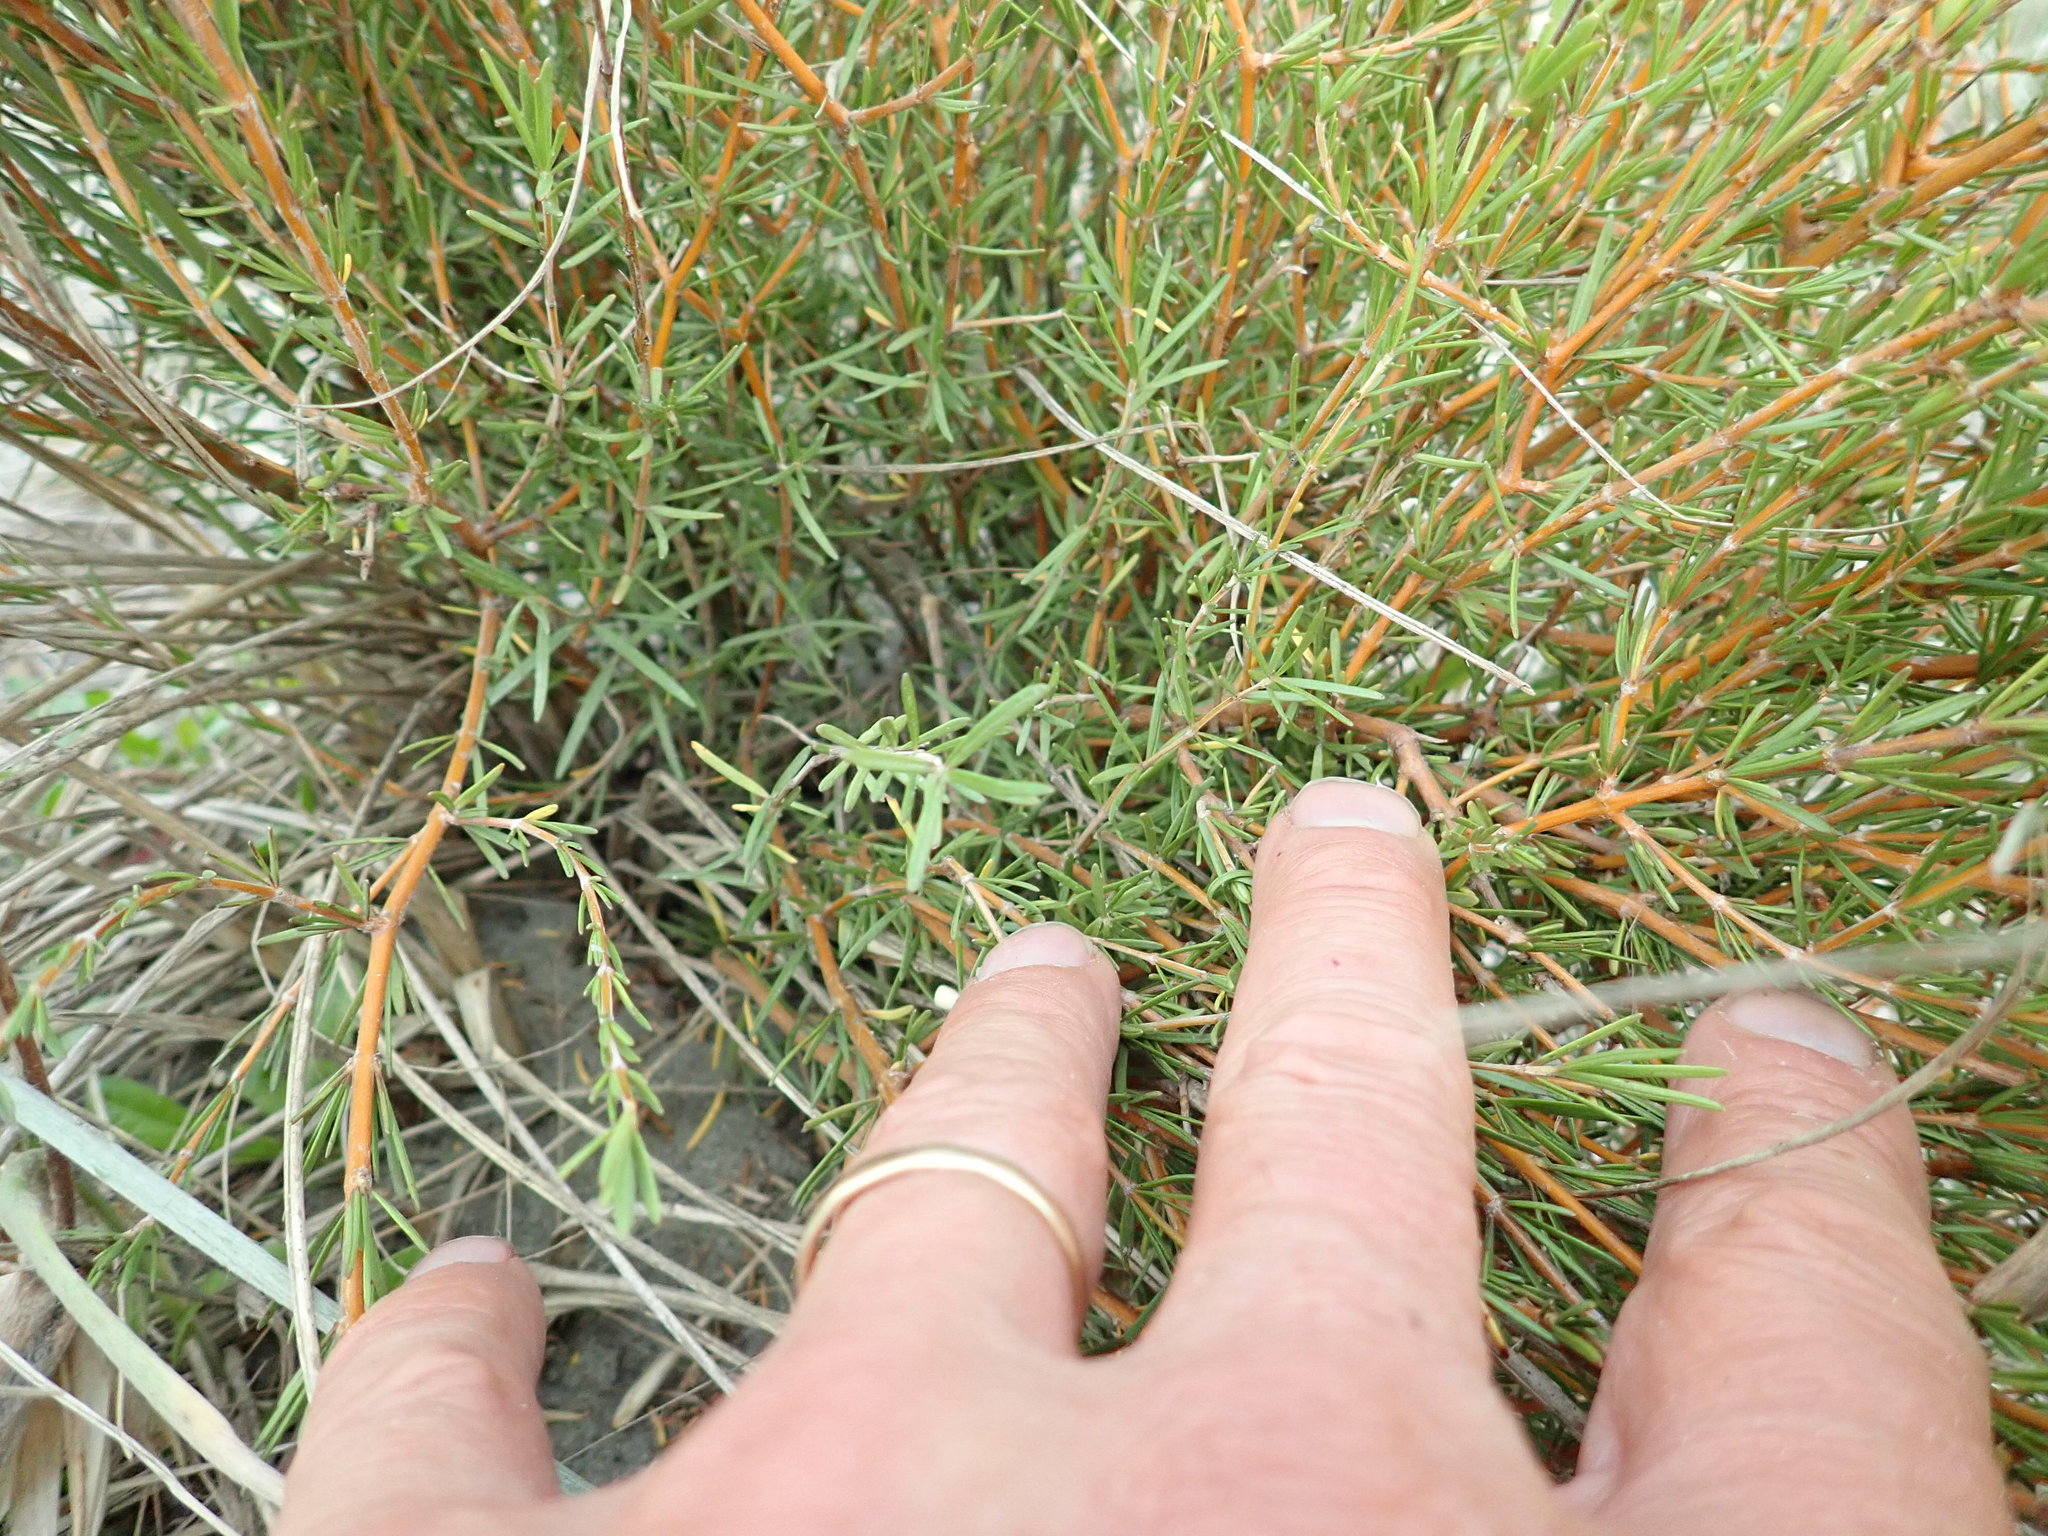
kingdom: Plantae
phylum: Tracheophyta
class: Magnoliopsida
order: Gentianales
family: Rubiaceae
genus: Coprosma
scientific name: Coprosma acerosa
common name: Sand coprosma
